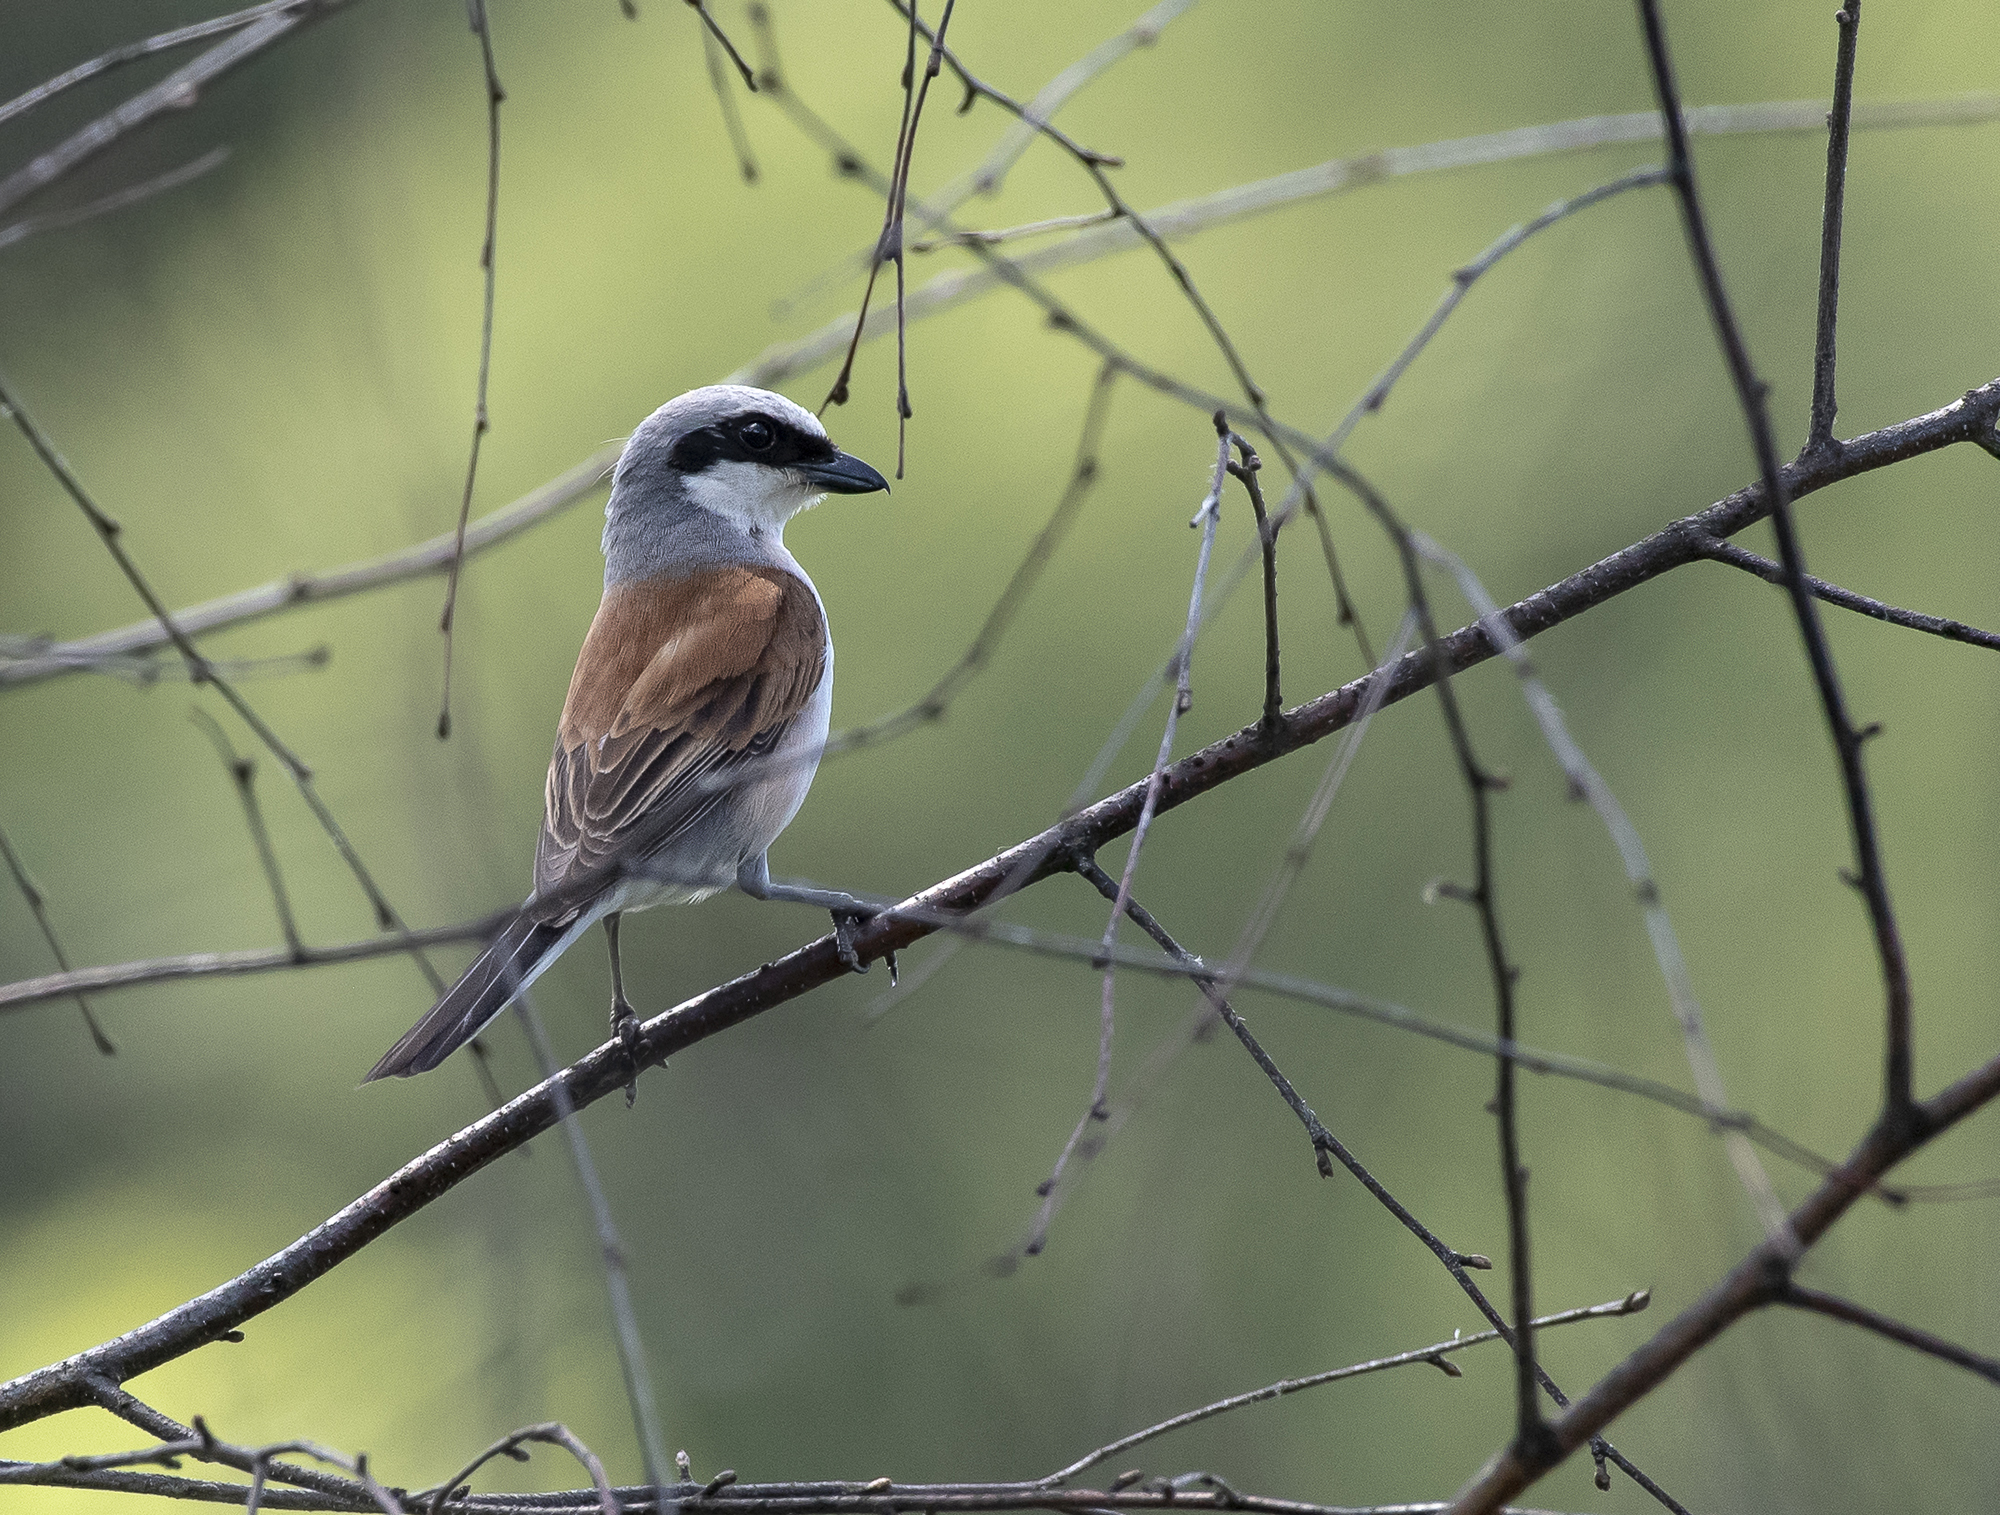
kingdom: Animalia
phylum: Chordata
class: Aves
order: Passeriformes
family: Laniidae
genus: Lanius
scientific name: Lanius collurio
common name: Red-backed shrike
